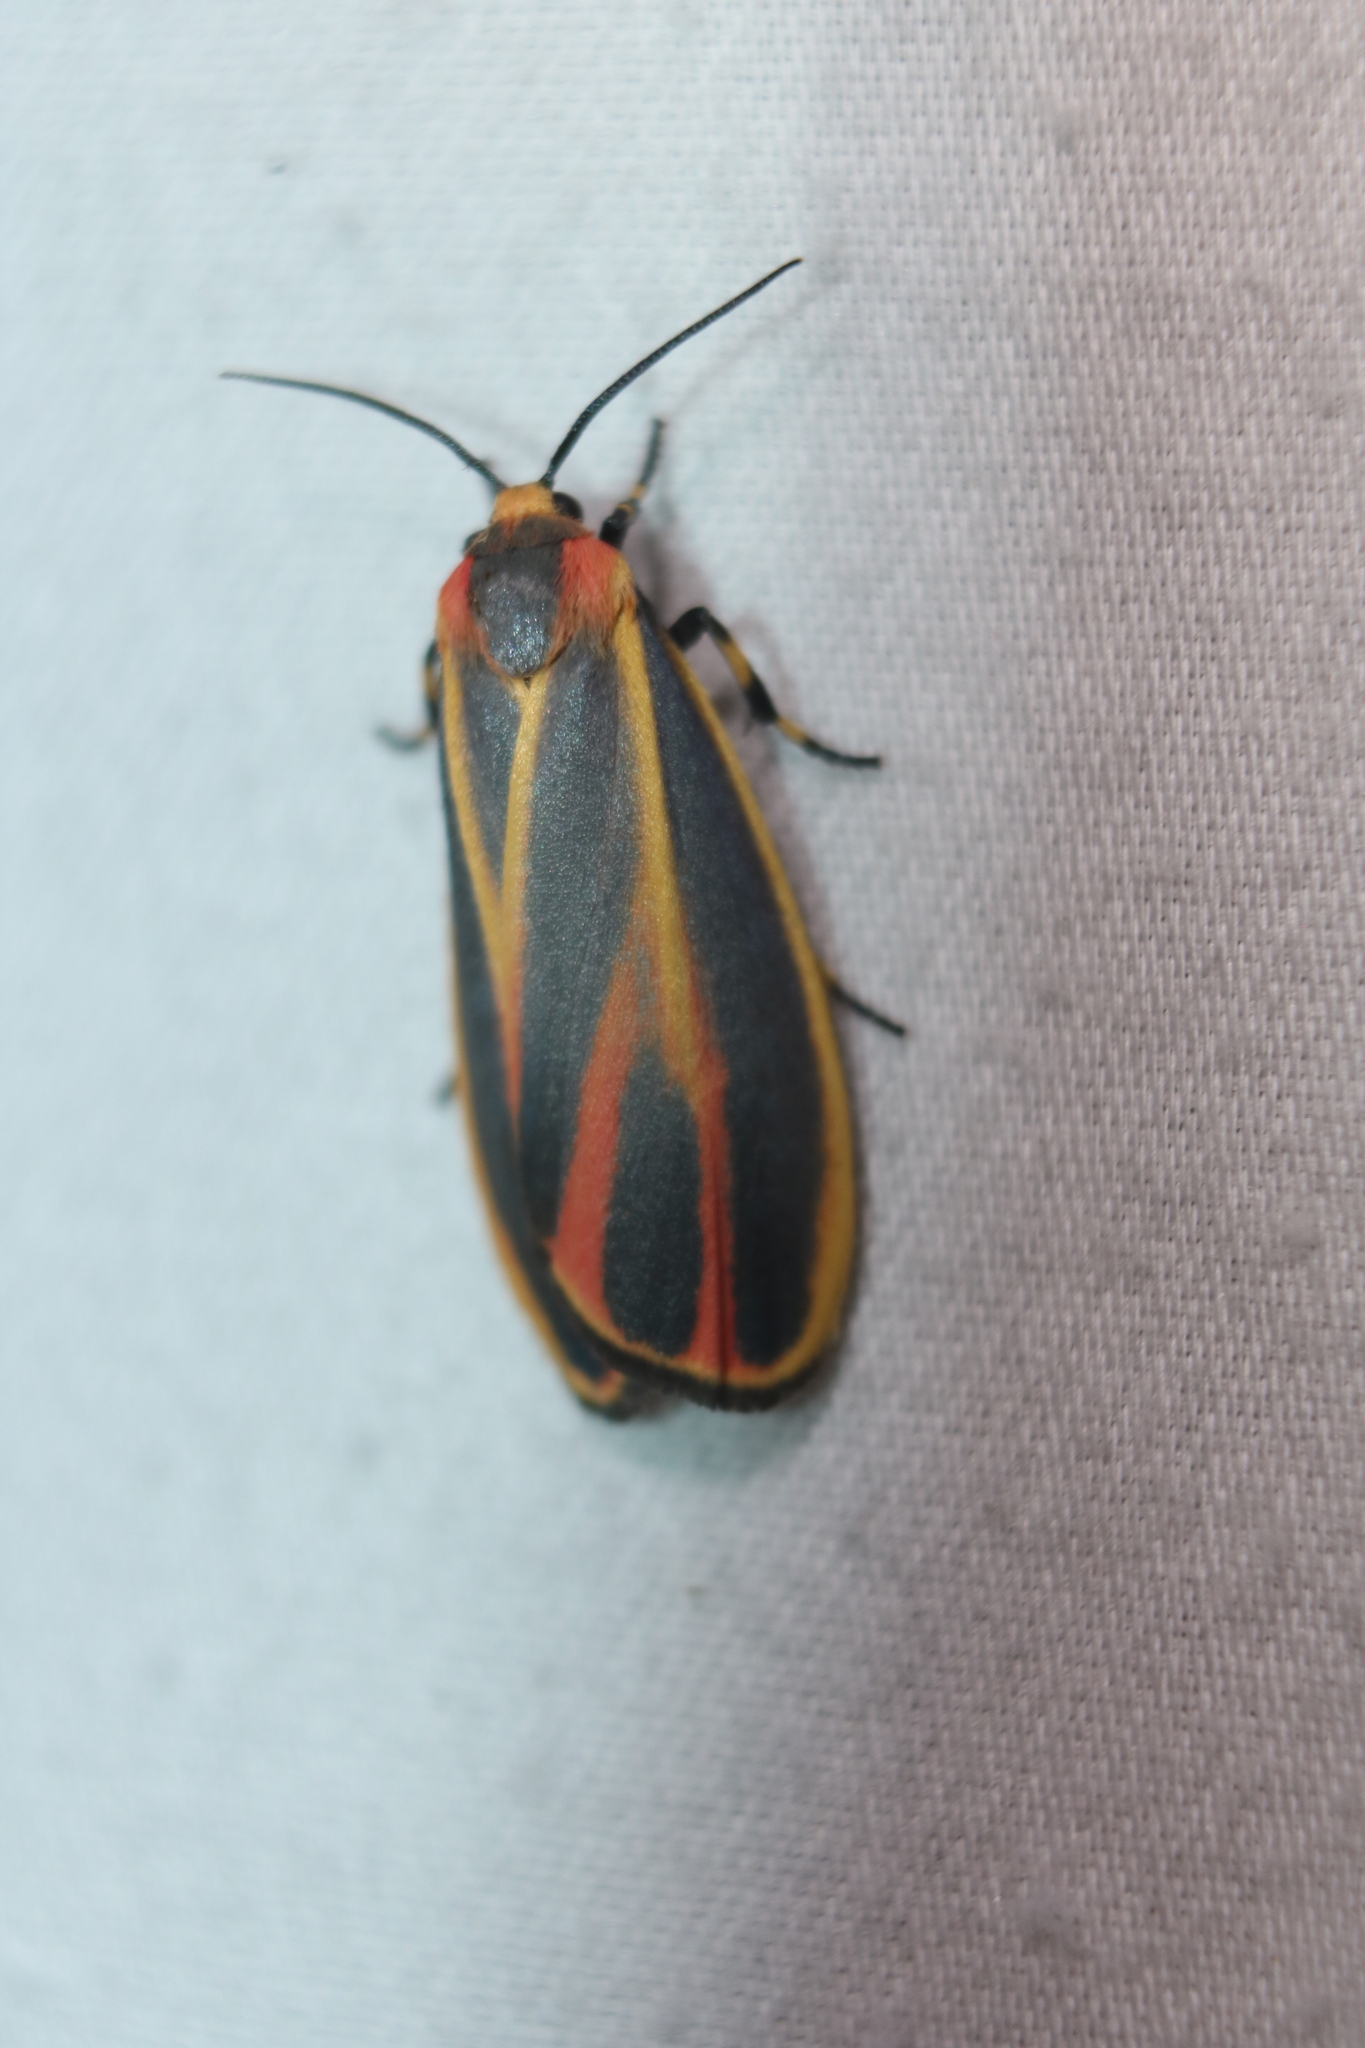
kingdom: Animalia
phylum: Arthropoda
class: Insecta
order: Lepidoptera
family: Erebidae
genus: Hypoprepia
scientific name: Hypoprepia fucosa
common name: Painted lichen moth
